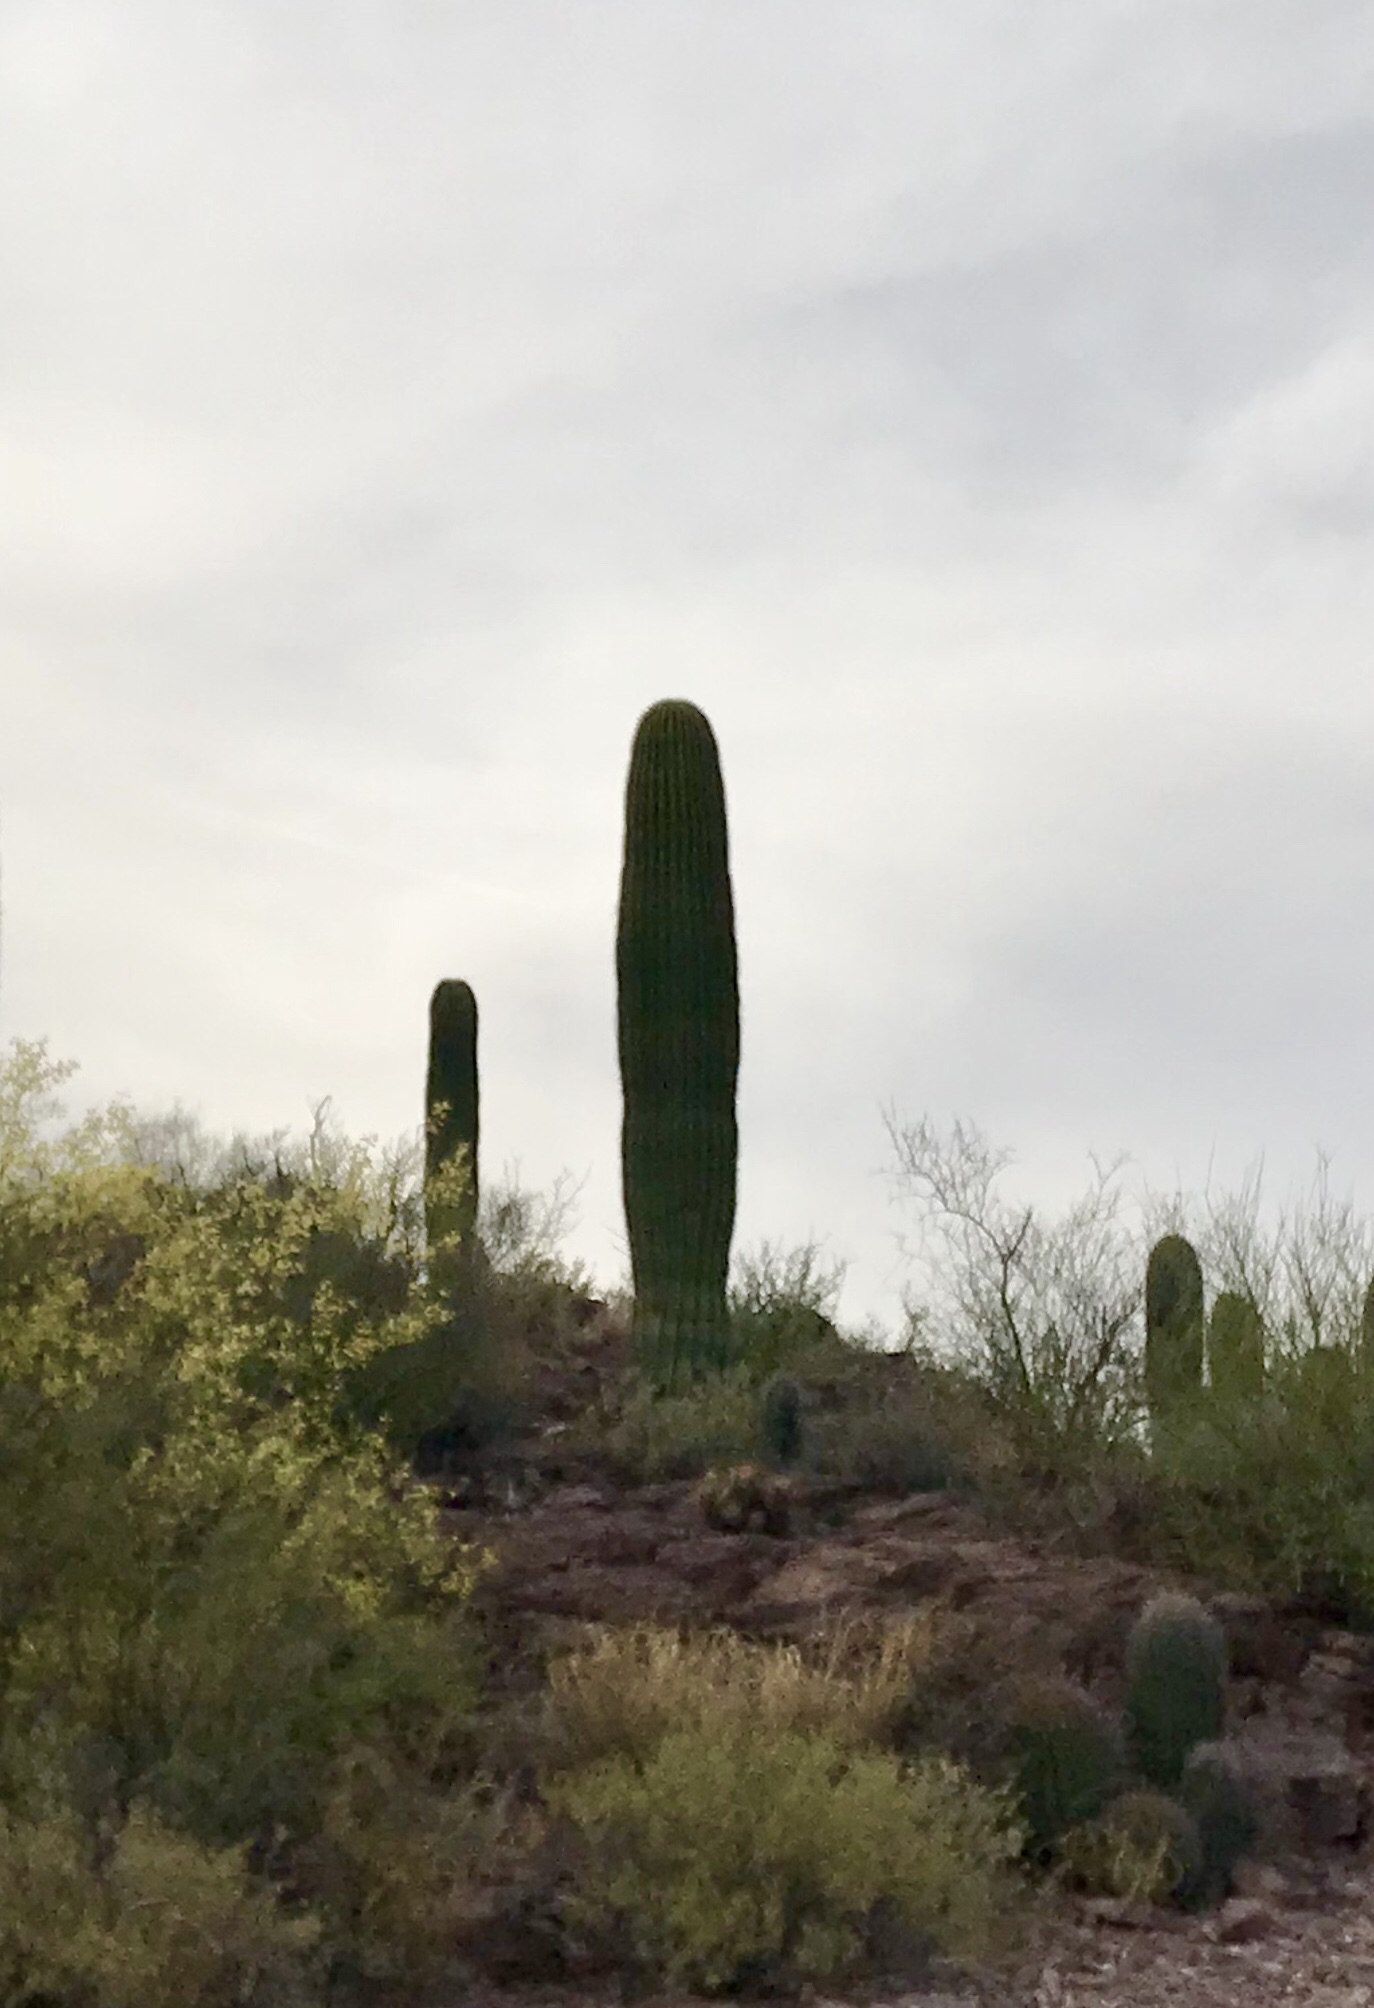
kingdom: Plantae
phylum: Tracheophyta
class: Magnoliopsida
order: Caryophyllales
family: Cactaceae
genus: Carnegiea
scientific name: Carnegiea gigantea
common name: Saguaro
